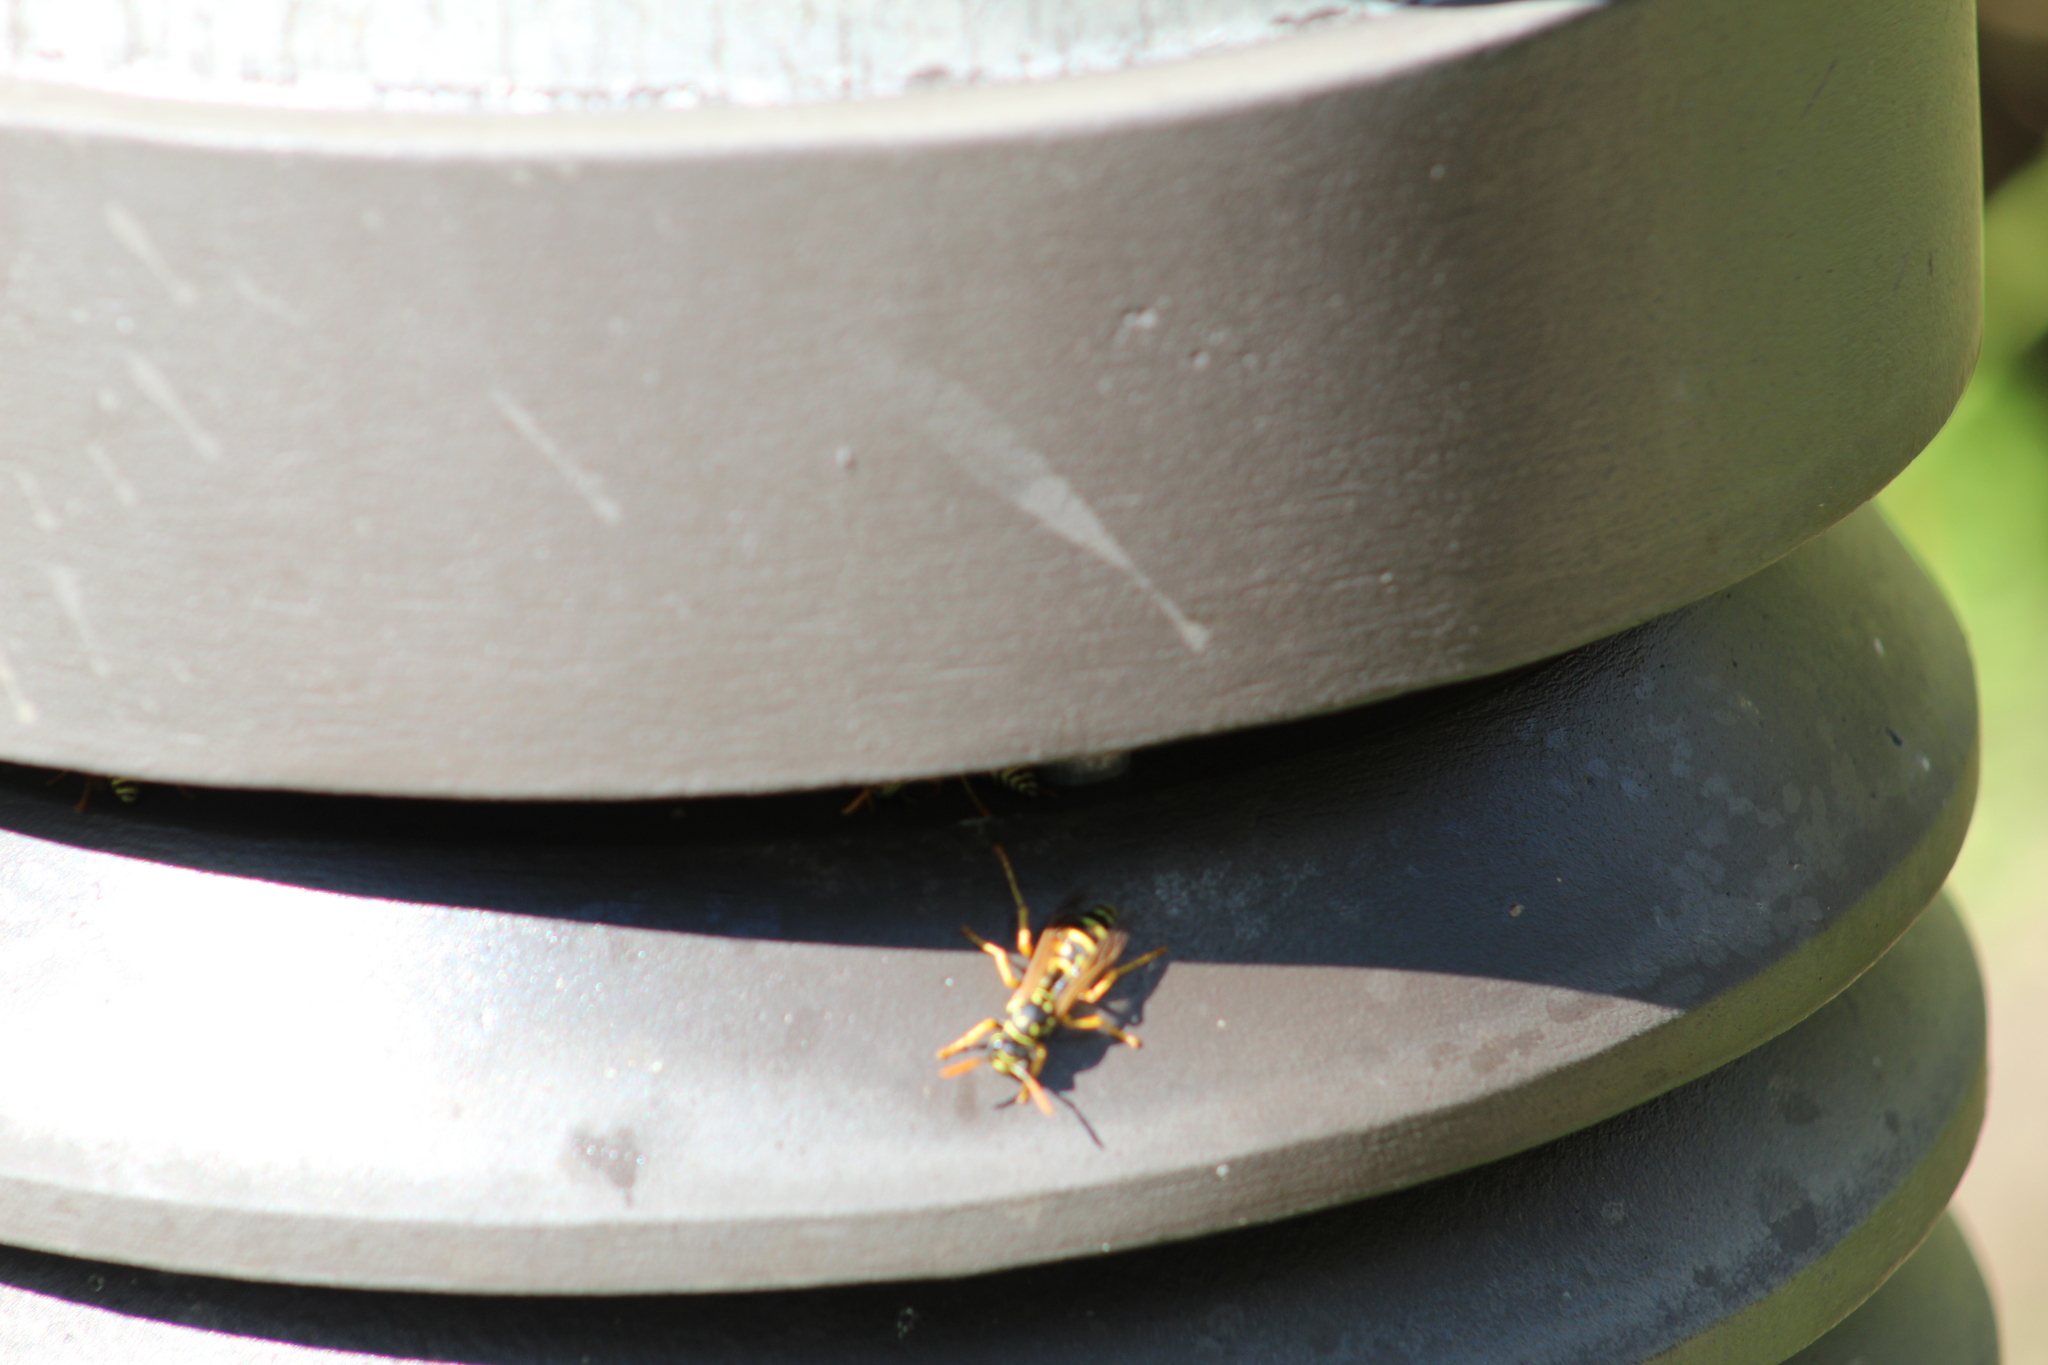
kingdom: Animalia
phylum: Arthropoda
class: Insecta
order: Hymenoptera
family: Eumenidae
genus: Polistes
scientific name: Polistes dominula
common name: Paper wasp
